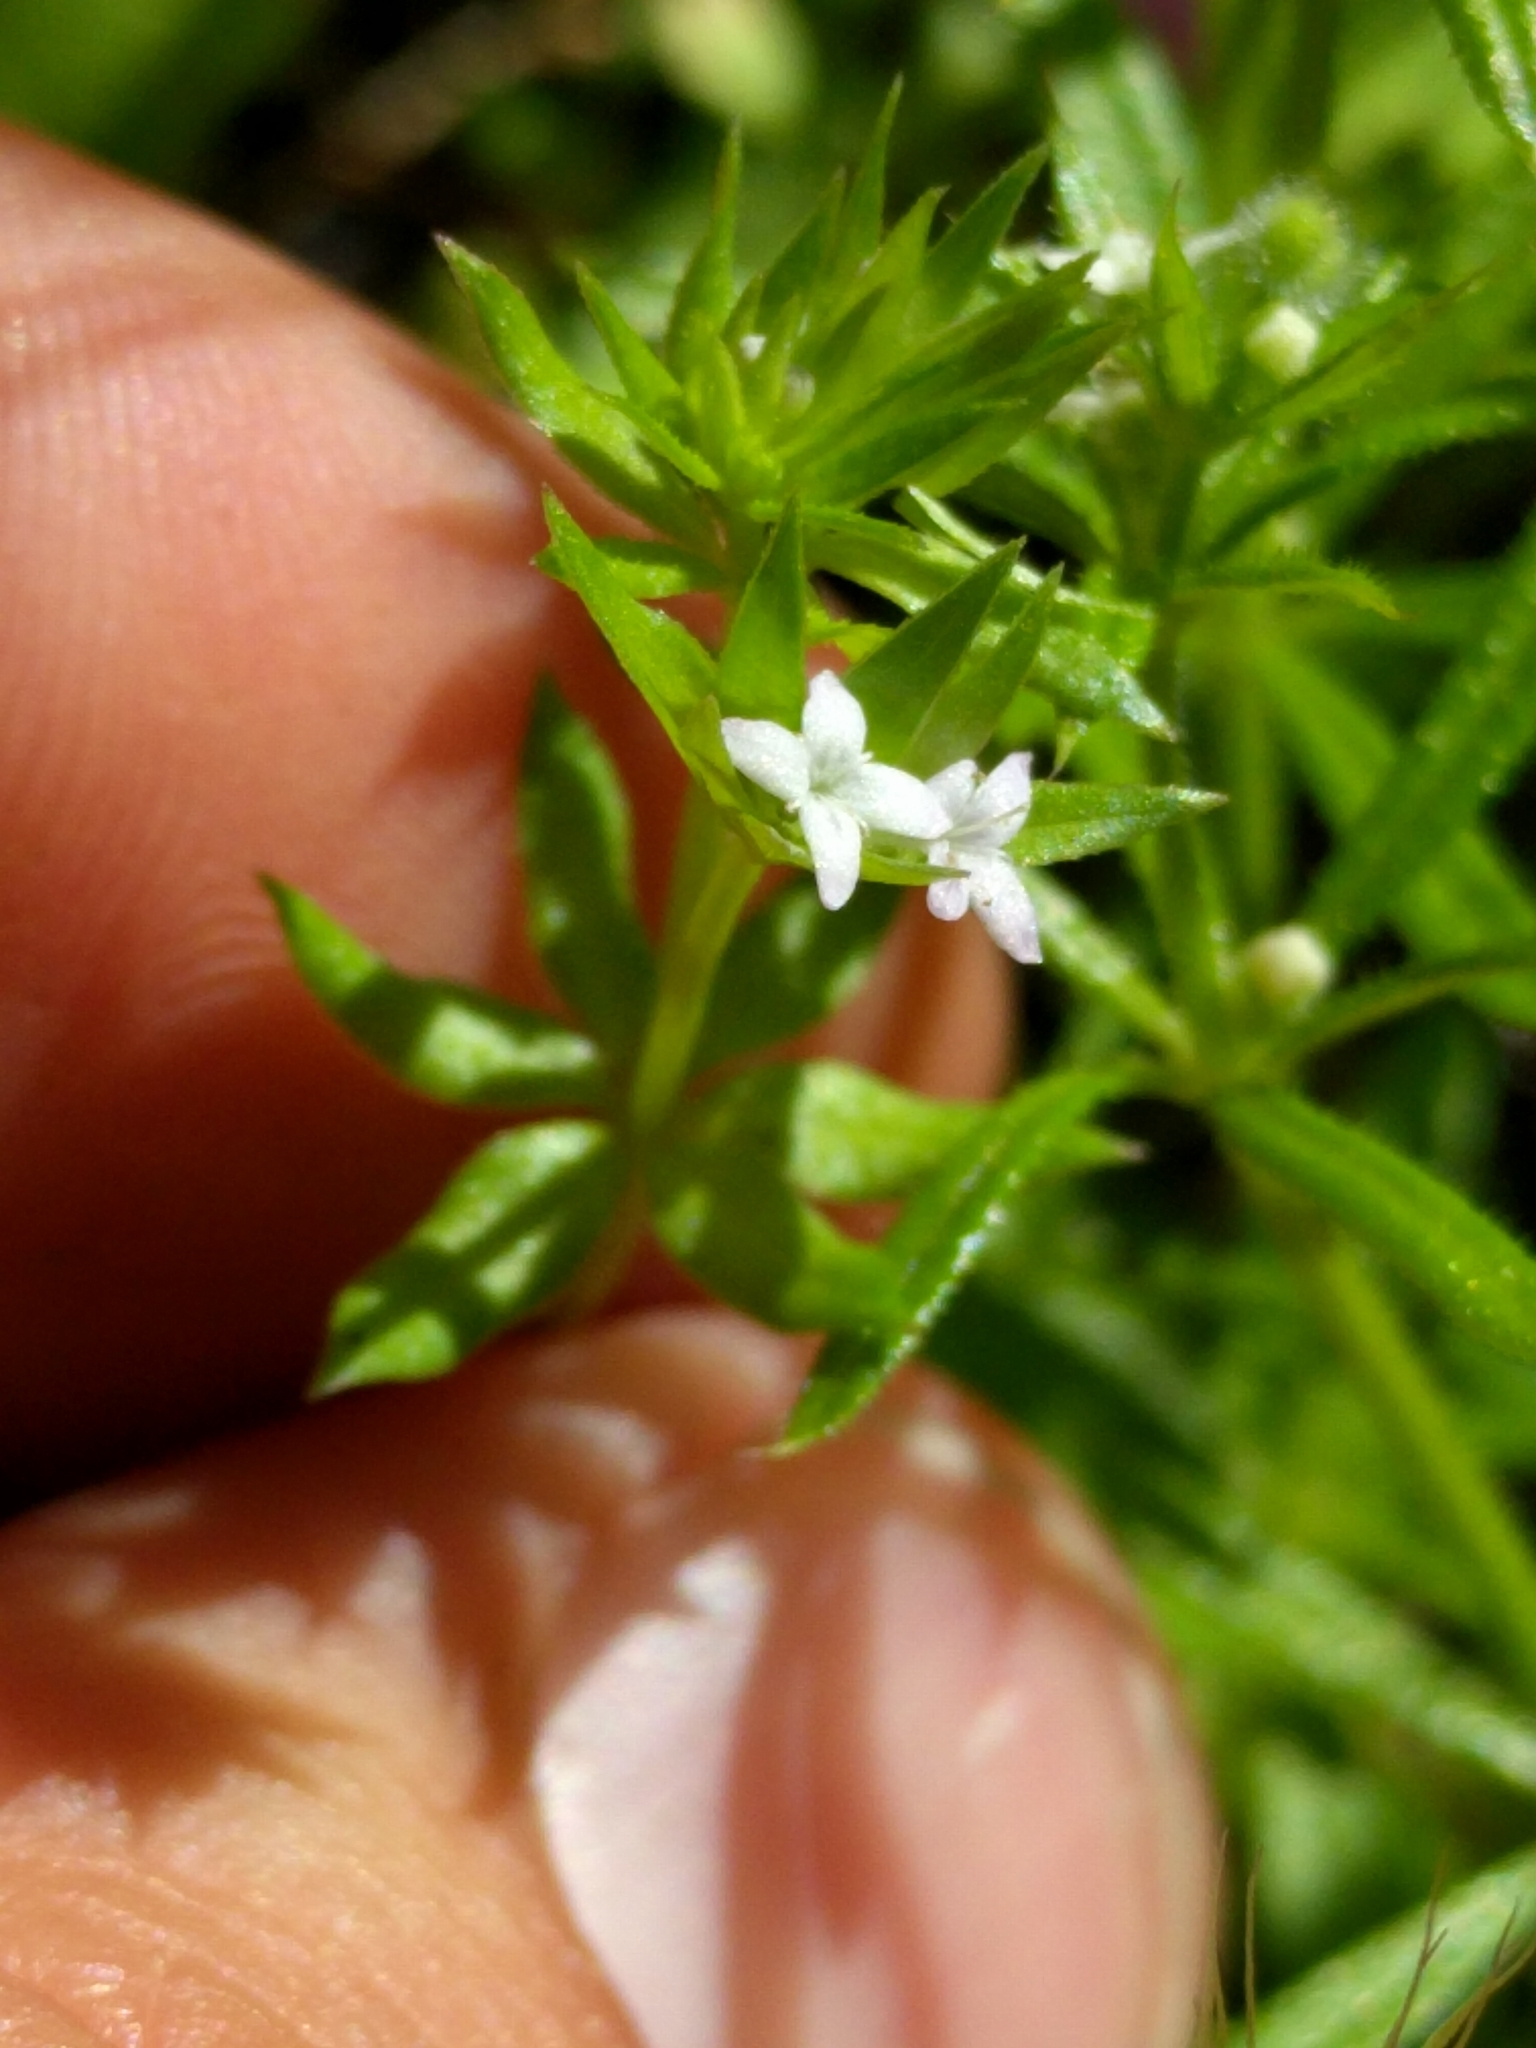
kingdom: Plantae
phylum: Tracheophyta
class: Magnoliopsida
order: Gentianales
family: Rubiaceae
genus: Sherardia
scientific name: Sherardia arvensis
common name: Field madder
